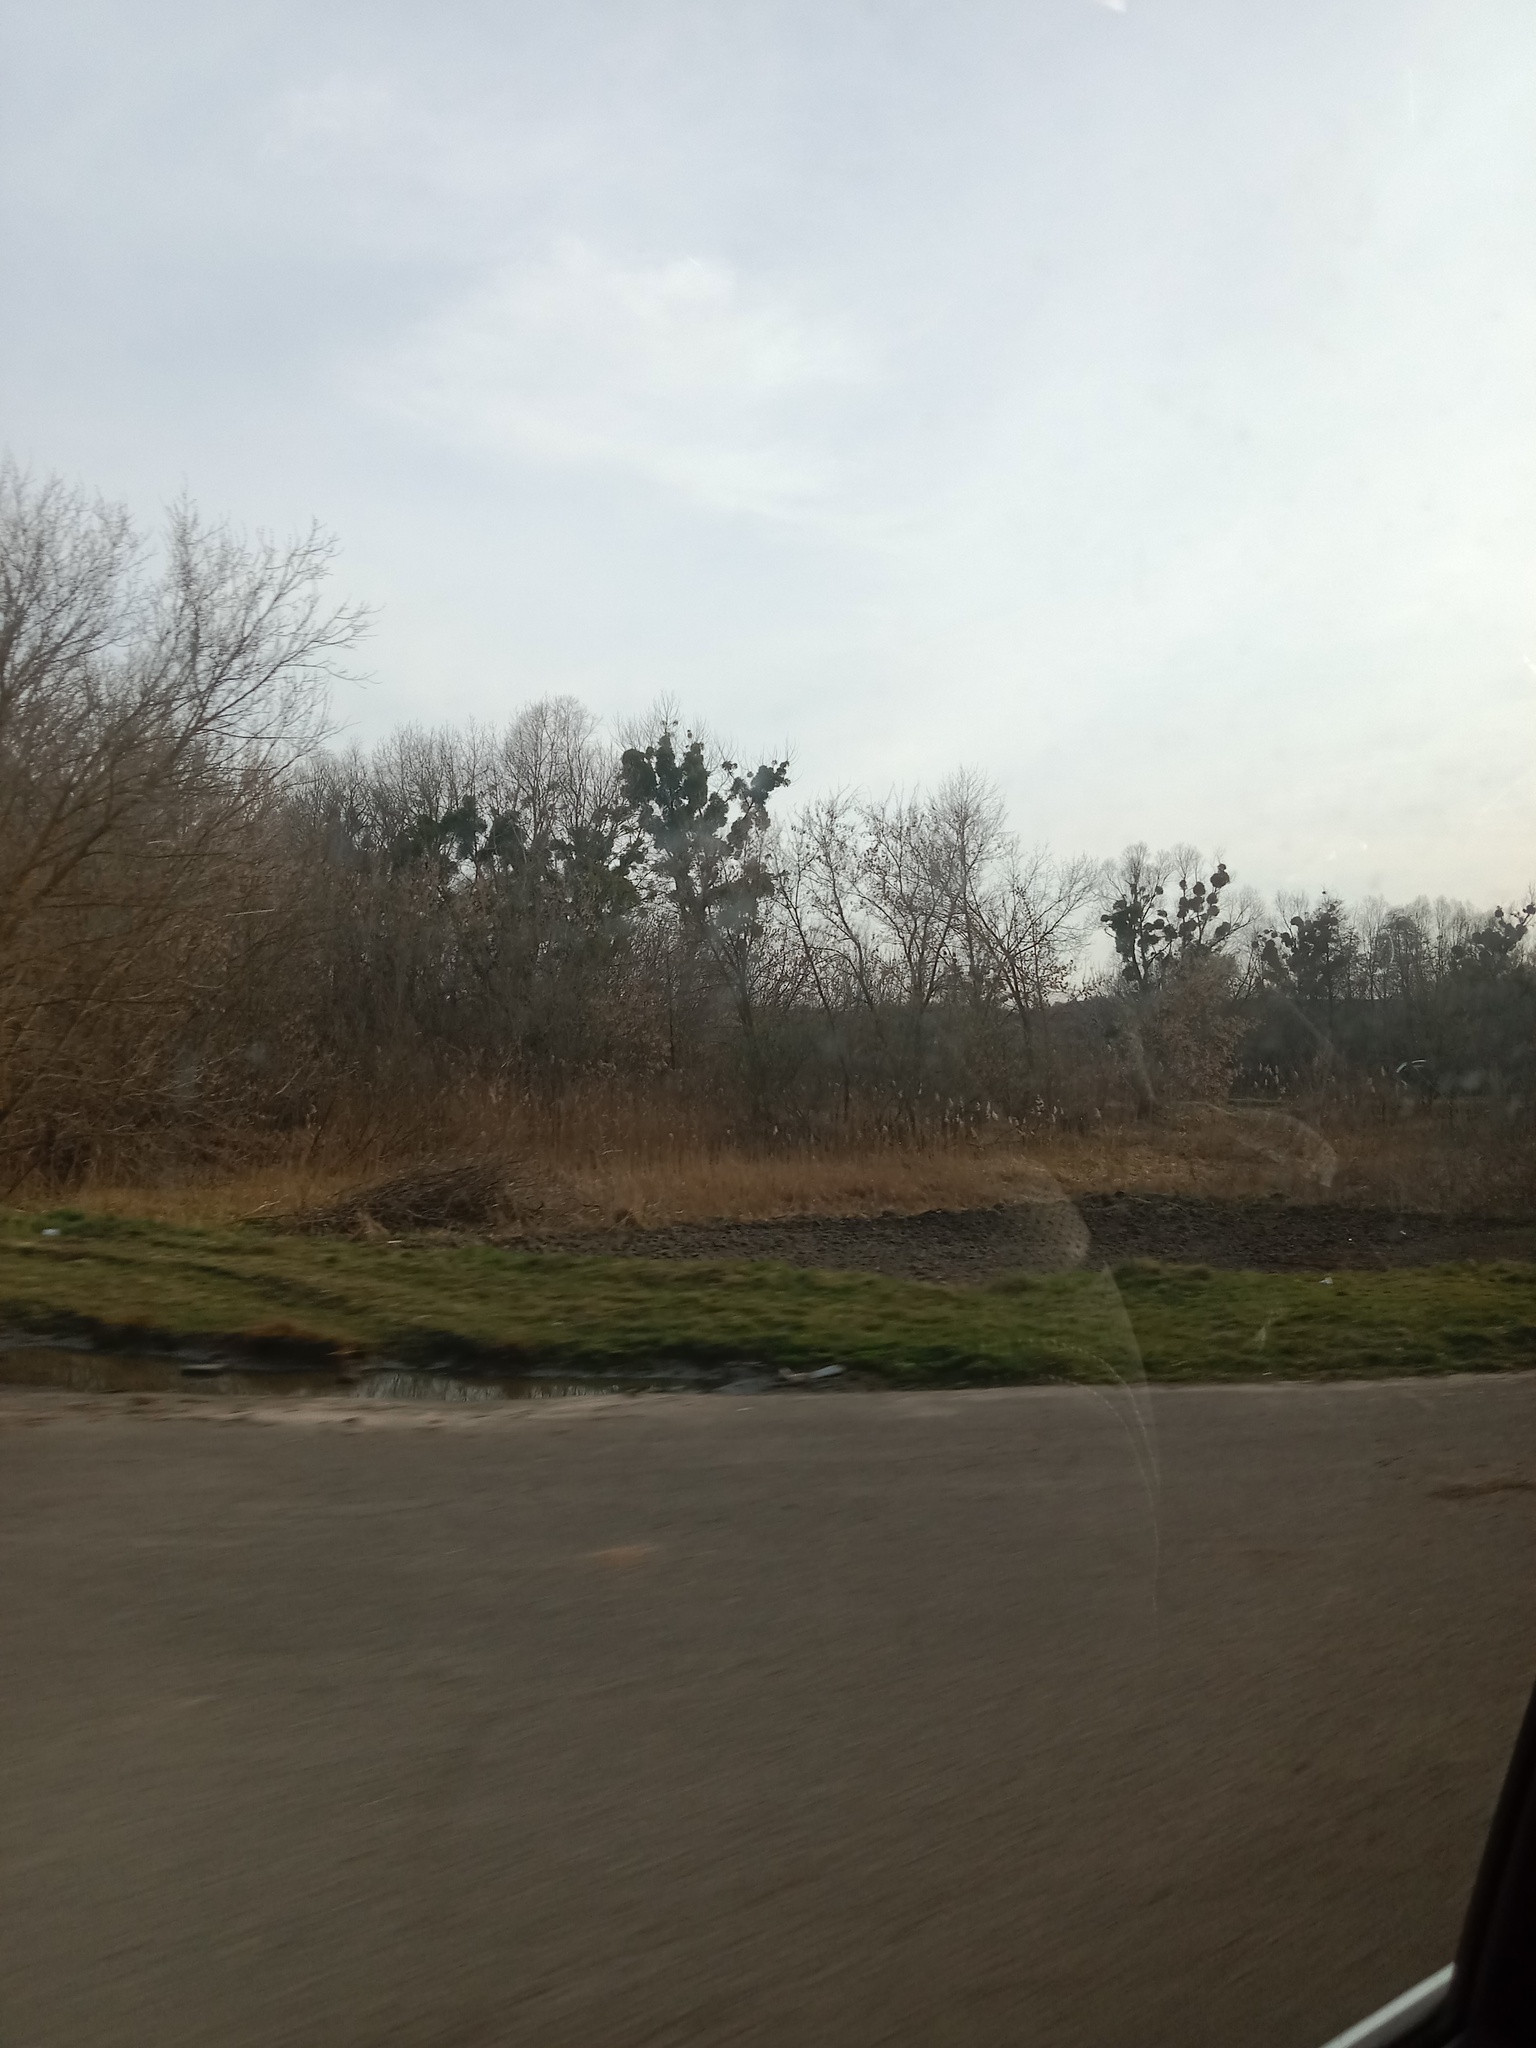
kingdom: Plantae
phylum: Tracheophyta
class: Magnoliopsida
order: Santalales
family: Viscaceae
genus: Viscum
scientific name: Viscum album
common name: Mistletoe
